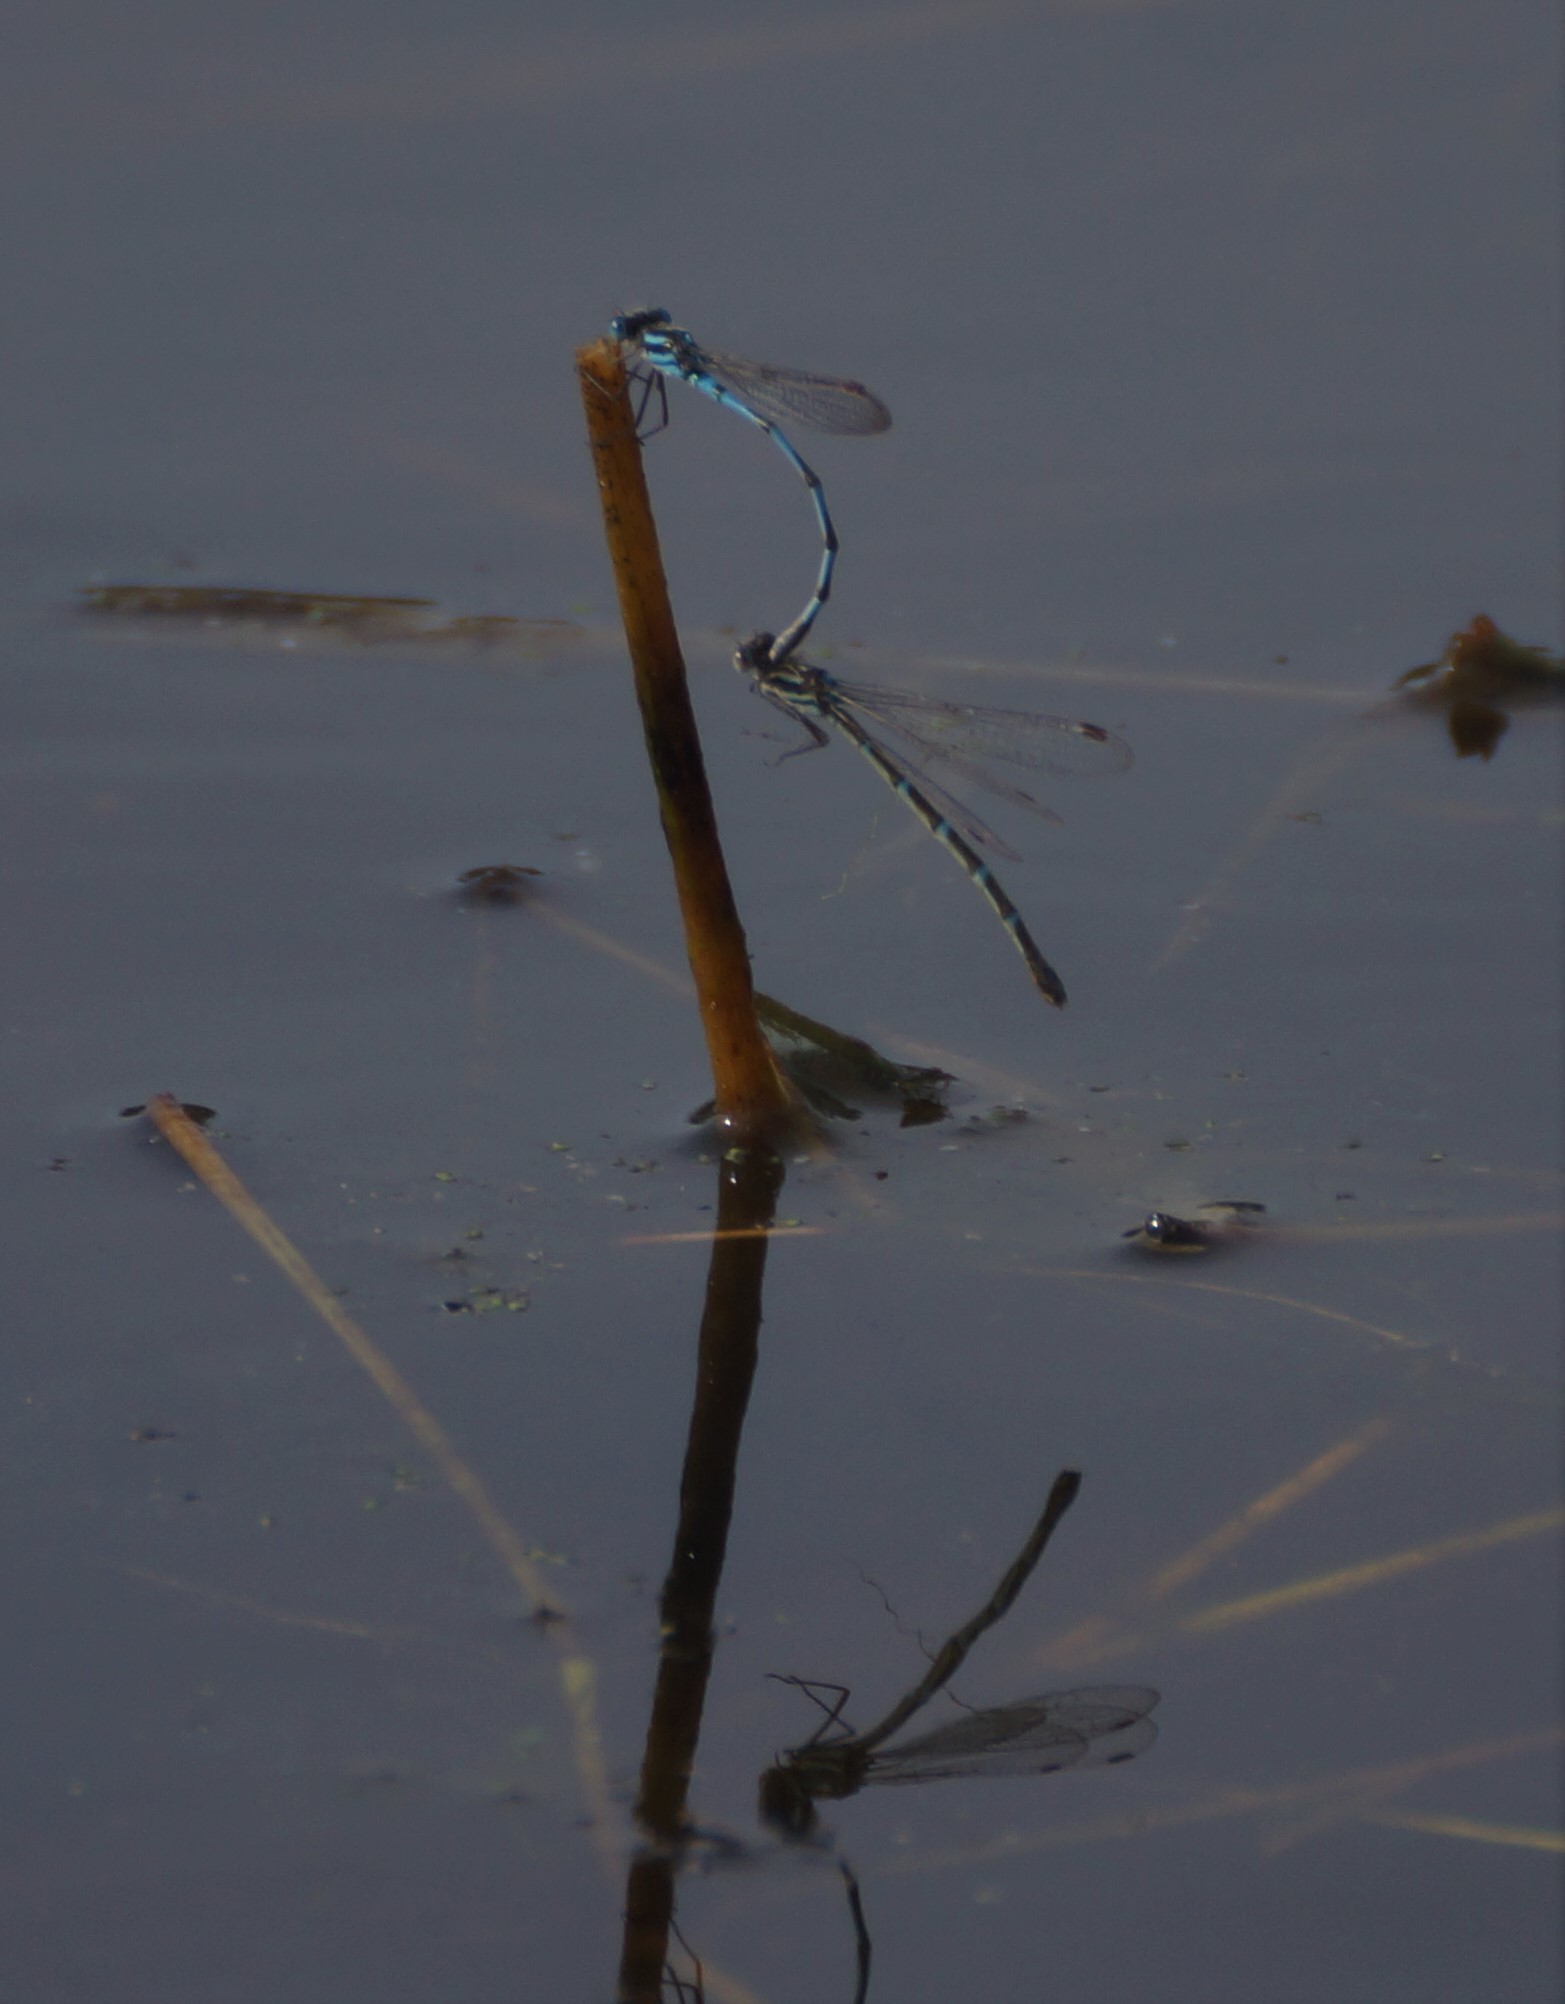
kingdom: Animalia
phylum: Arthropoda
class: Insecta
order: Odonata
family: Lestidae
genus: Austrolestes
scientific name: Austrolestes annulosus
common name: Blue ringtail
